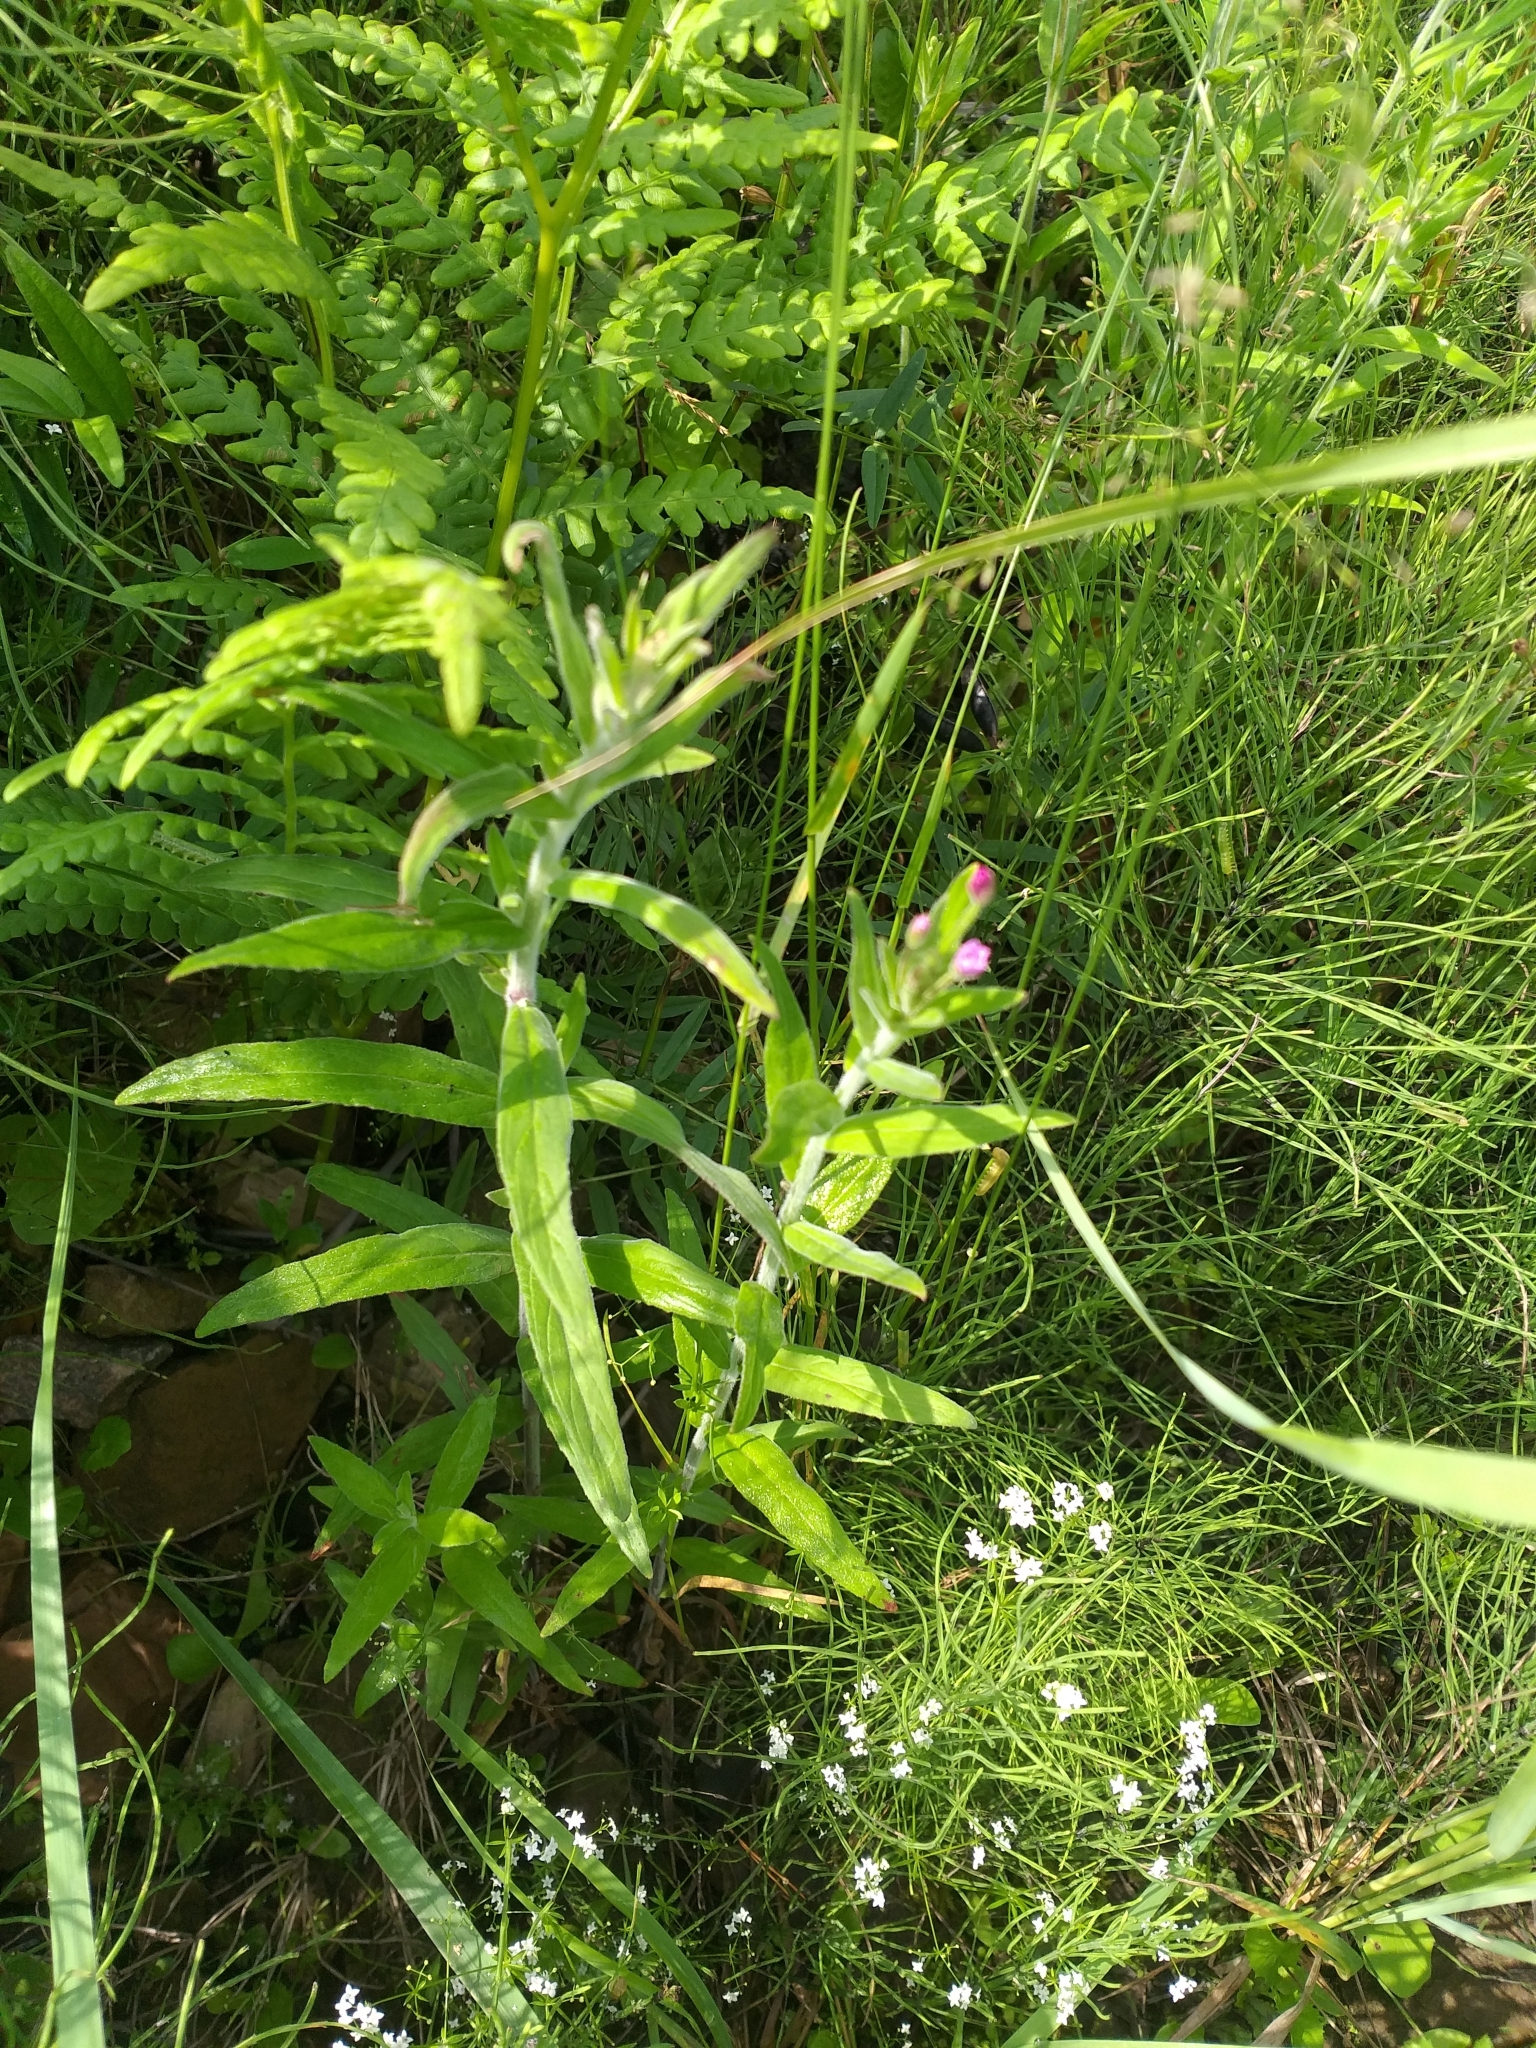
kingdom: Plantae
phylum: Tracheophyta
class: Magnoliopsida
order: Myrtales
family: Onagraceae
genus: Epilobium
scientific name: Epilobium parviflorum
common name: Hoary willowherb
